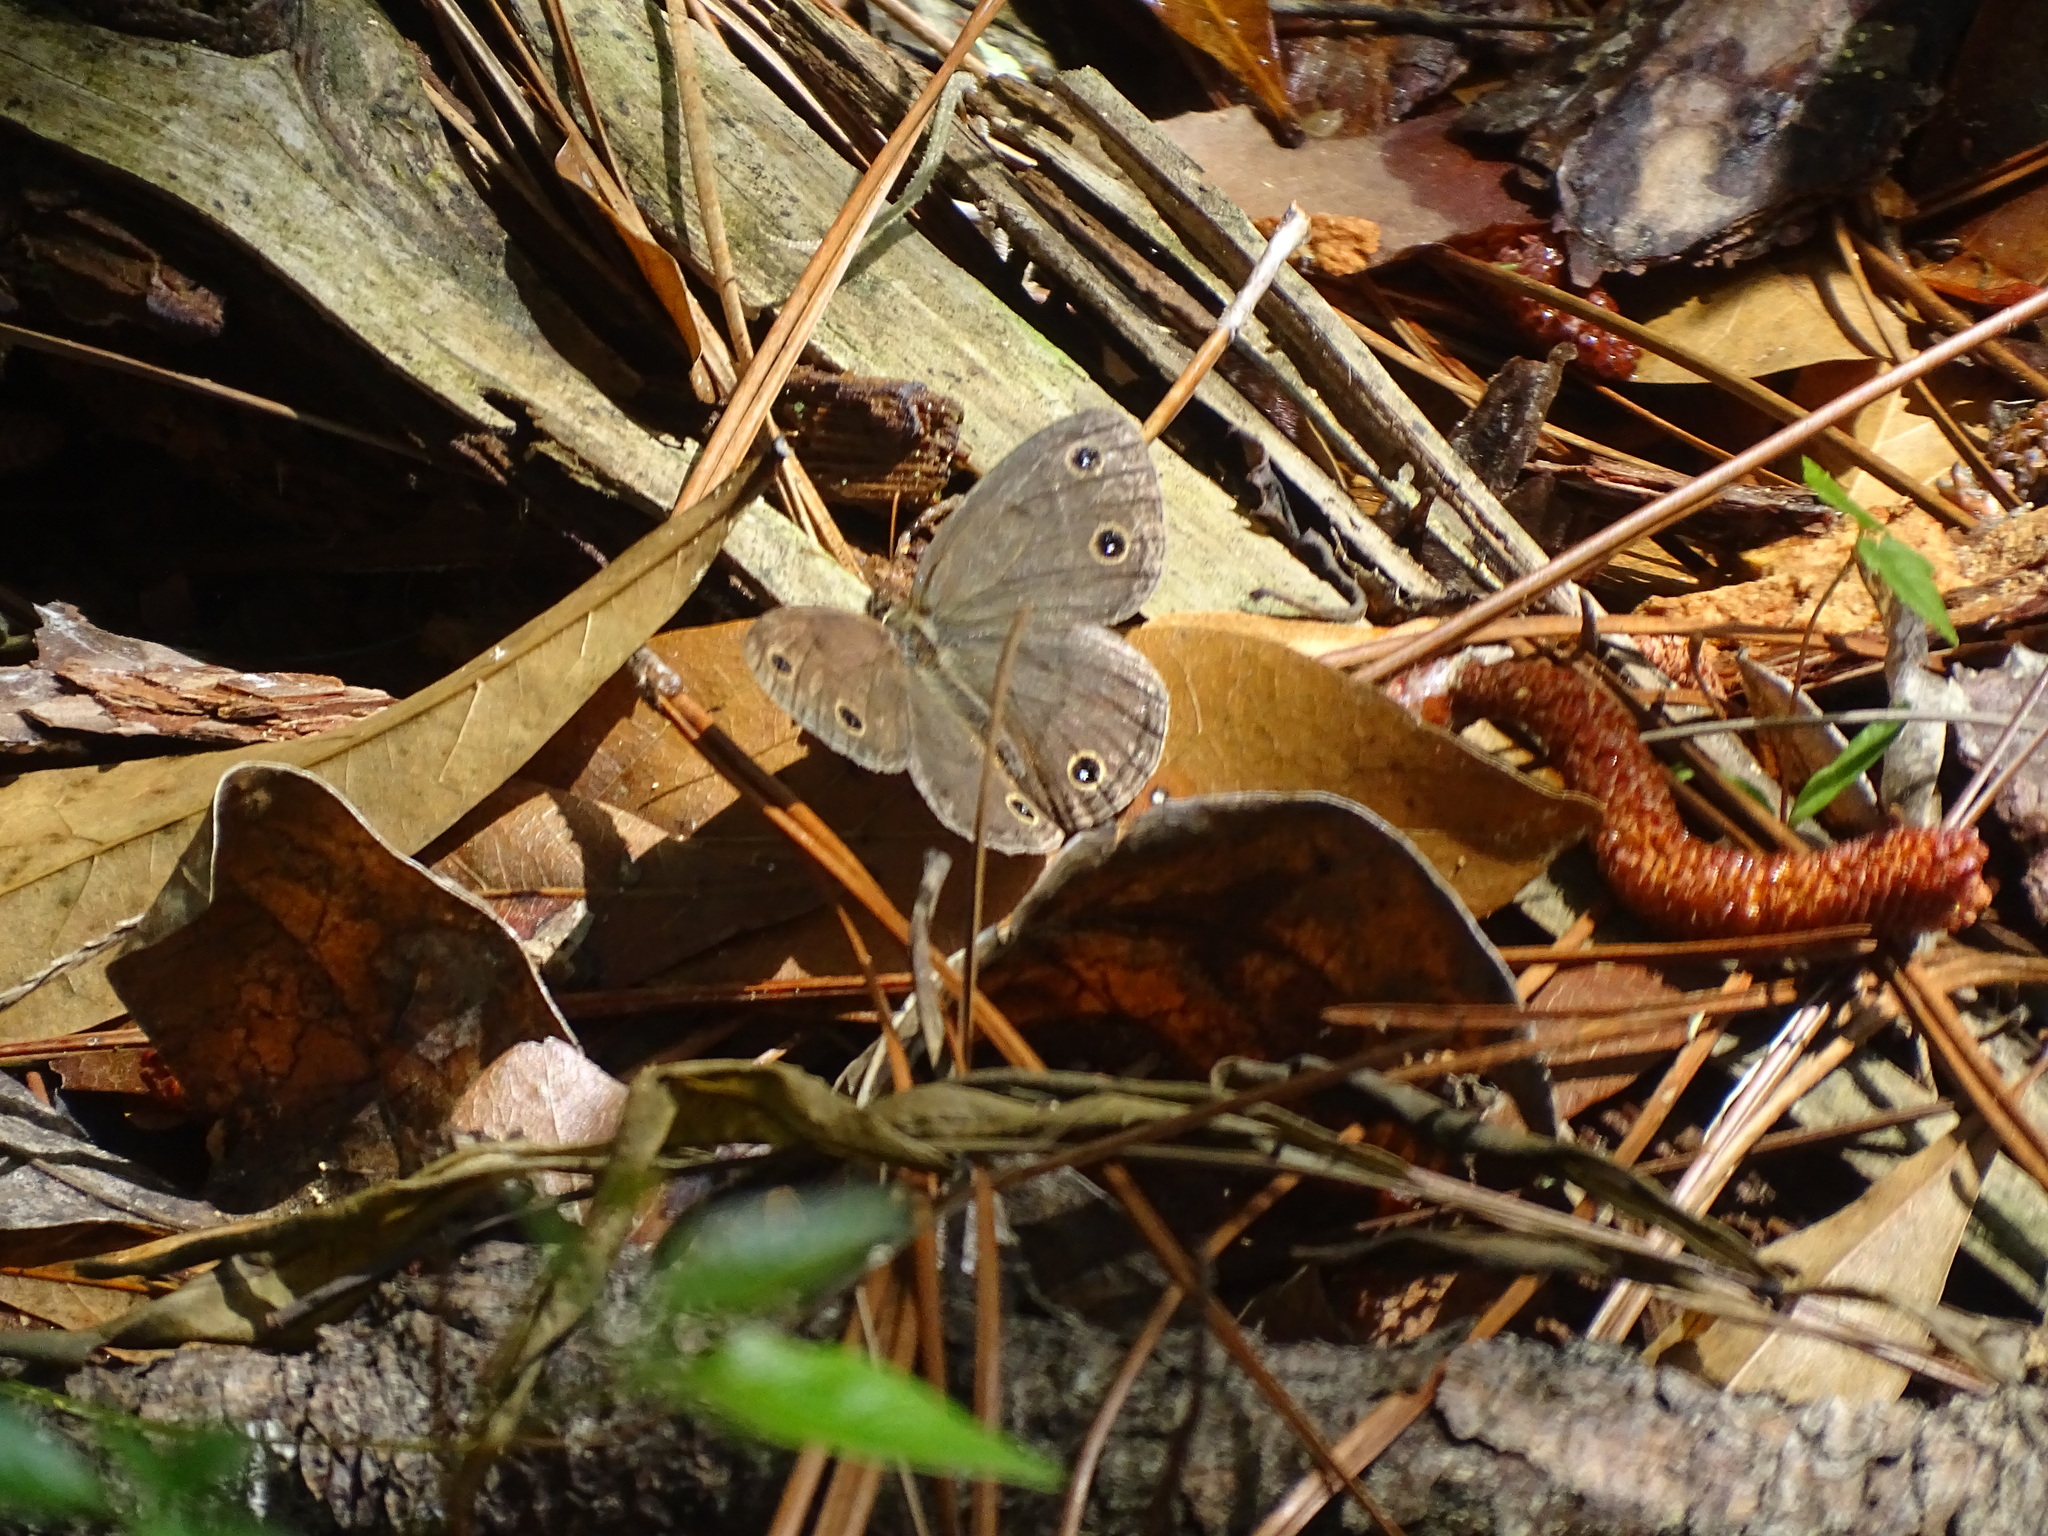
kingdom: Animalia
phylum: Arthropoda
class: Insecta
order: Lepidoptera
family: Nymphalidae
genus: Euptychia
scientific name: Euptychia cymela
